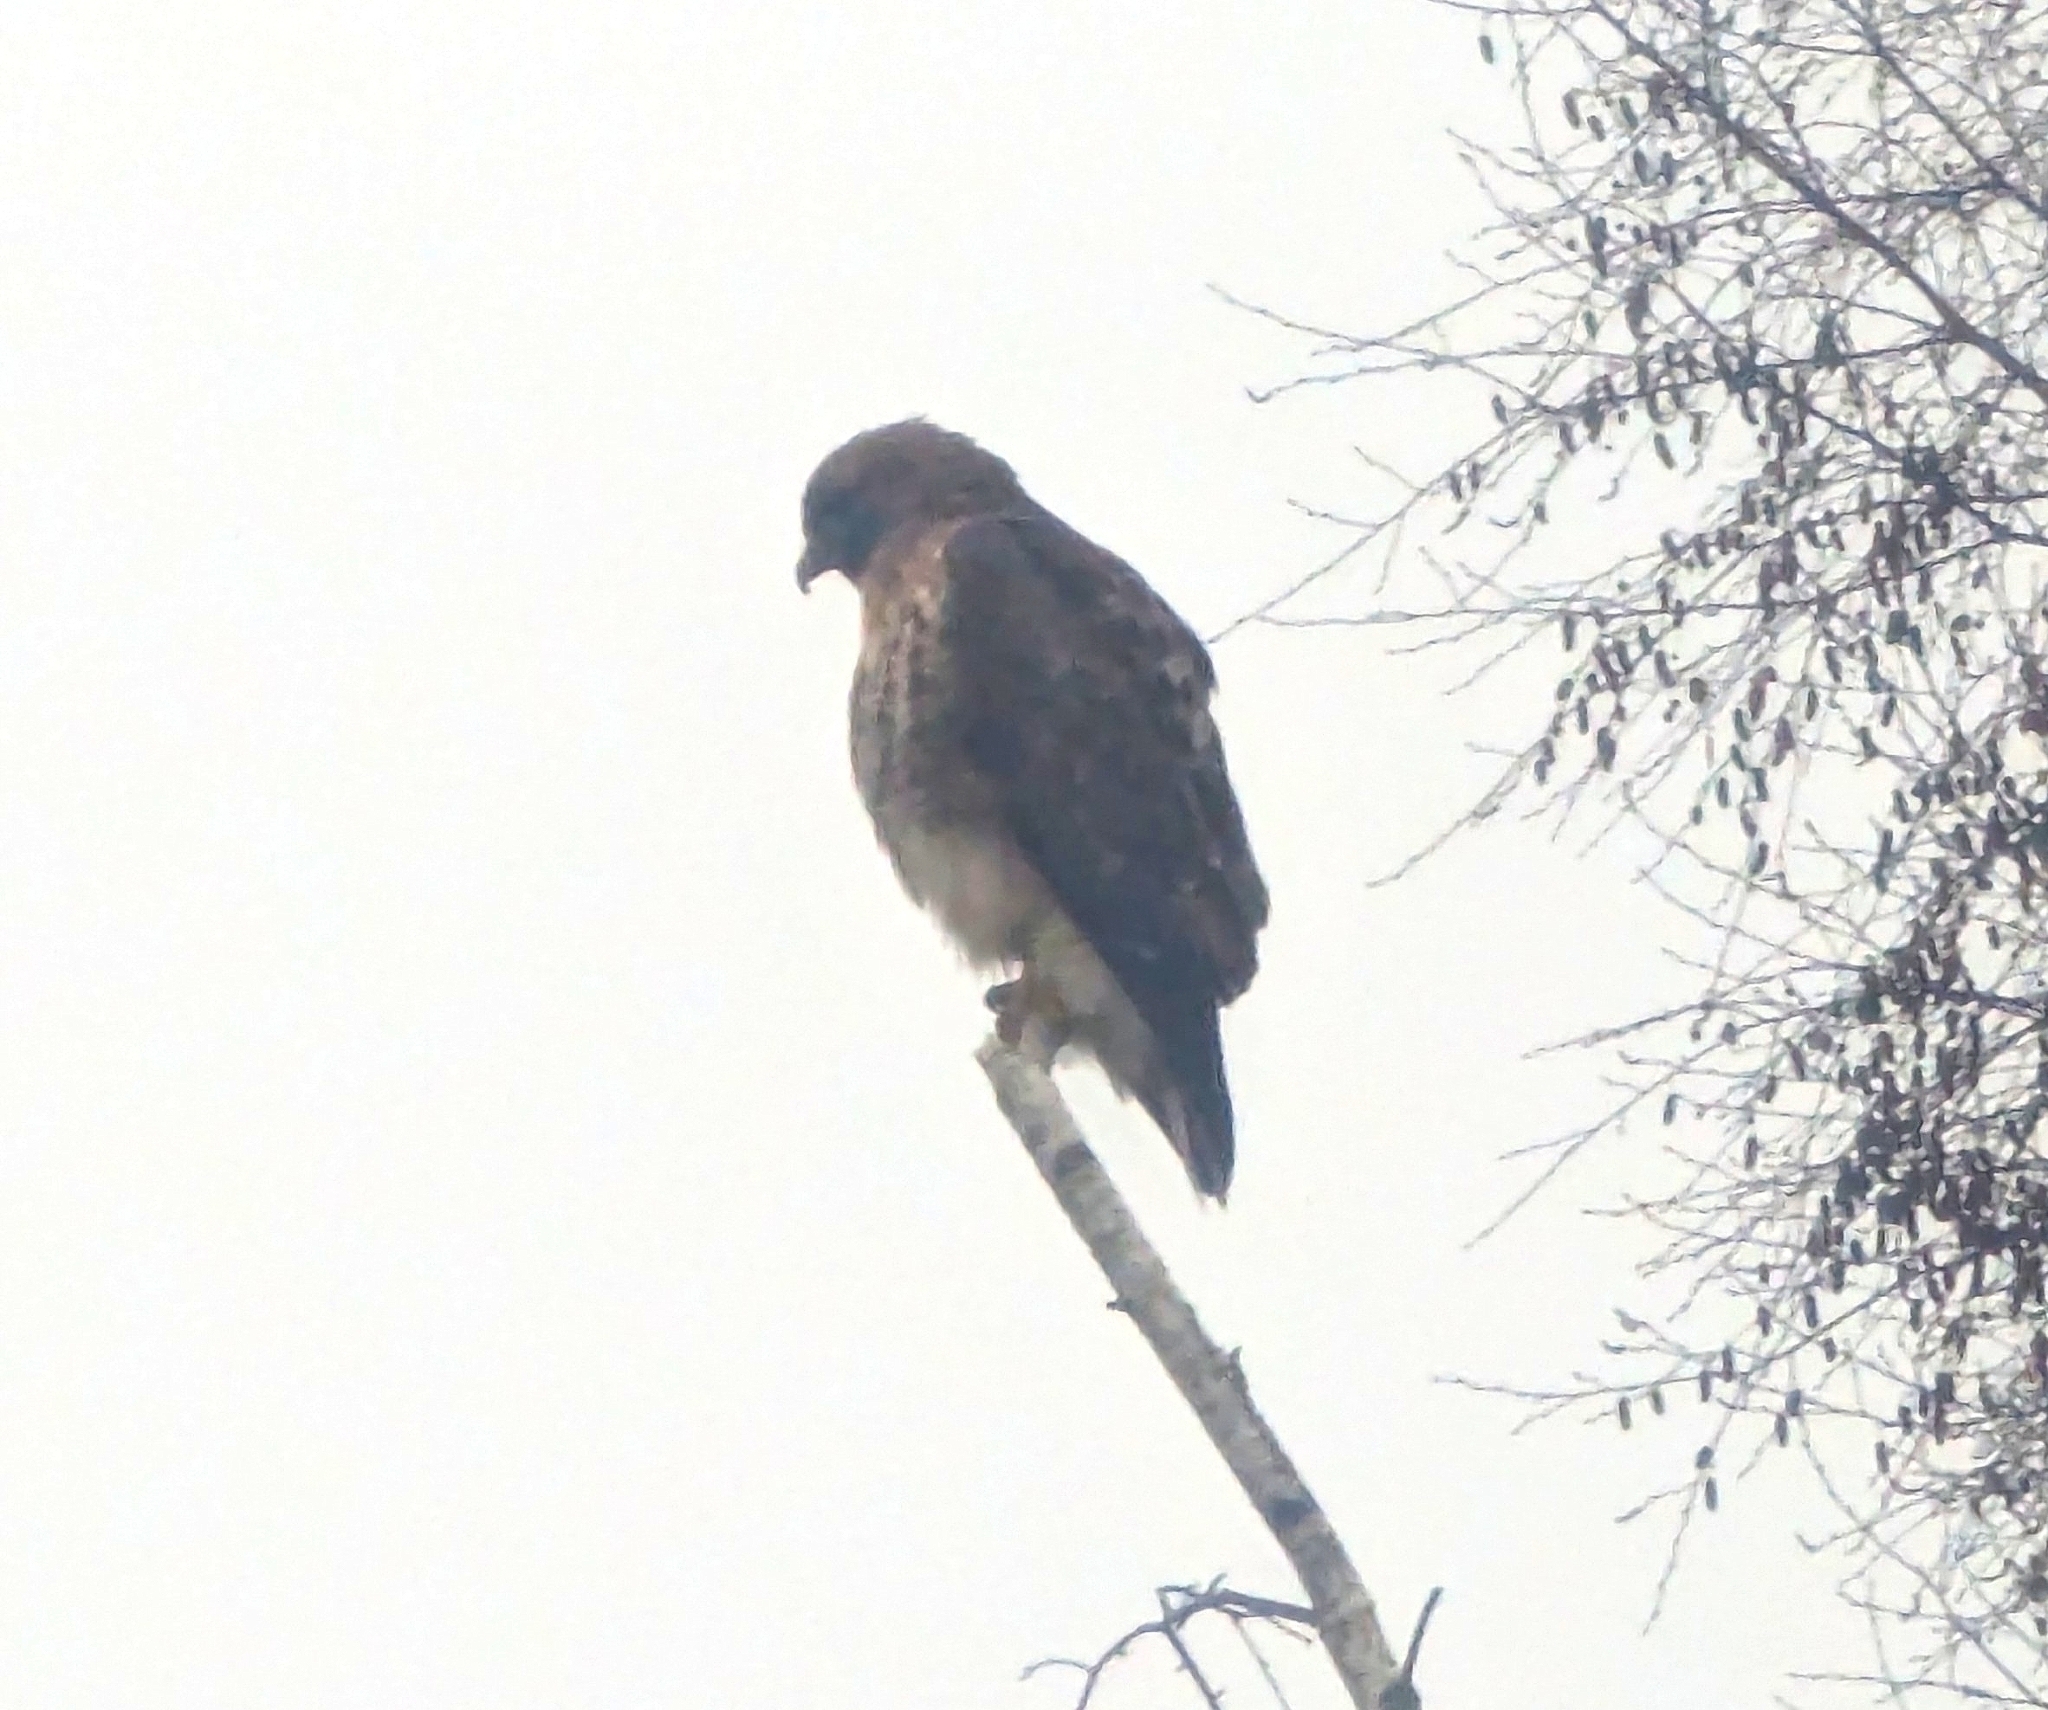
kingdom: Animalia
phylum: Chordata
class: Aves
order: Accipitriformes
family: Accipitridae
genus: Buteo
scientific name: Buteo jamaicensis
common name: Red-tailed hawk
